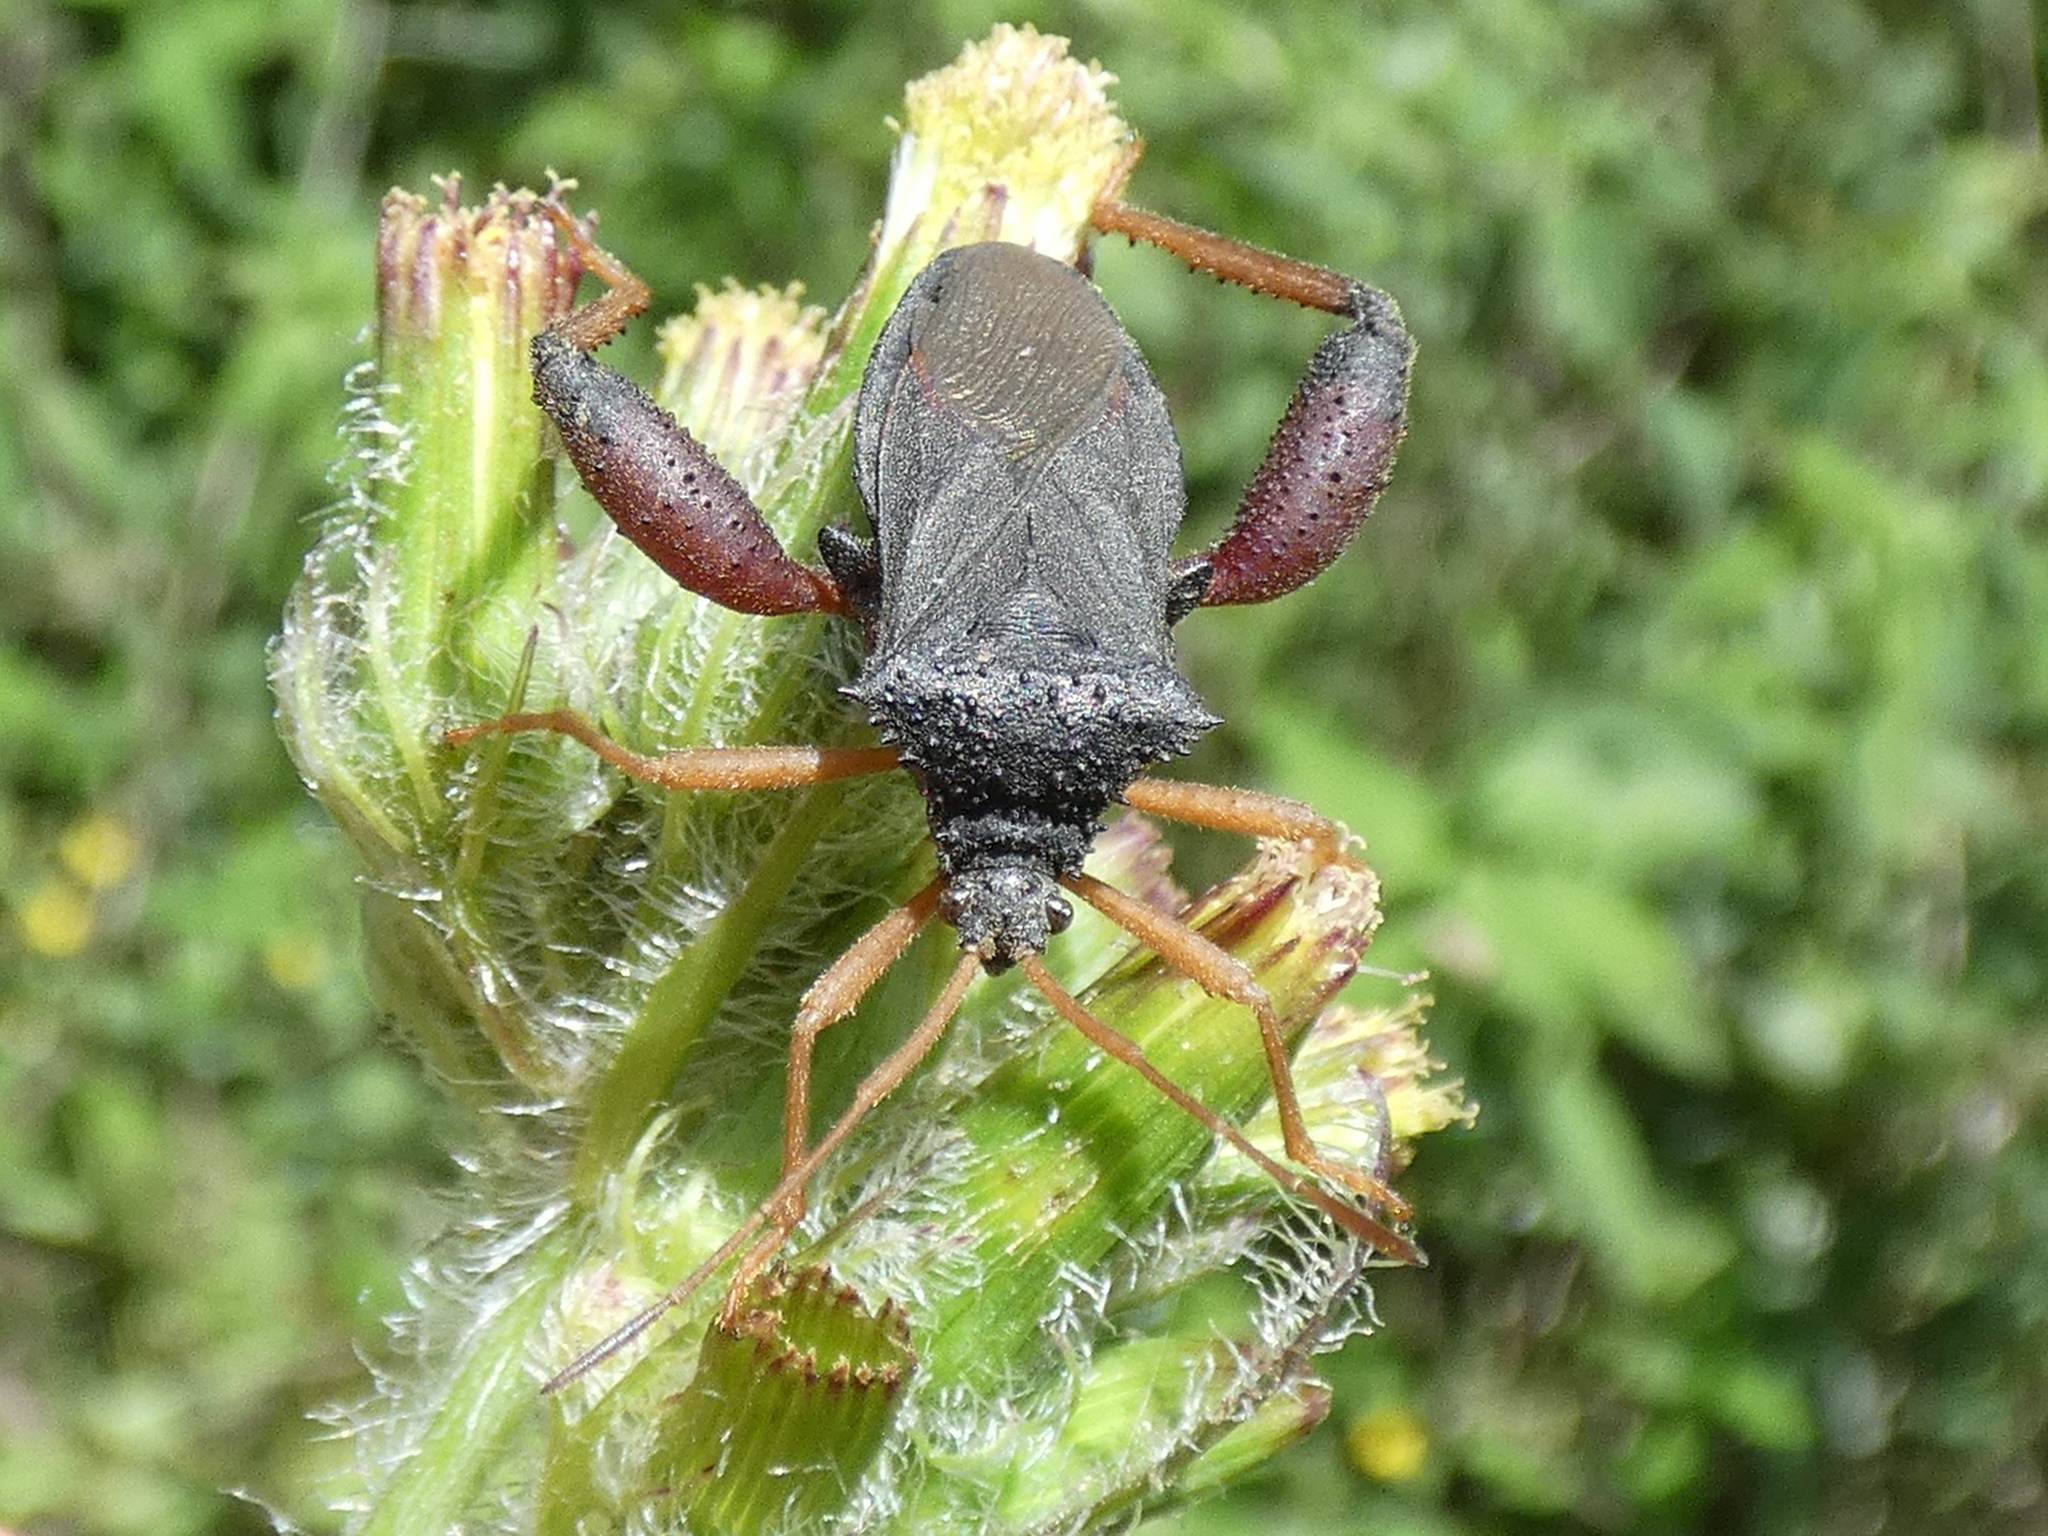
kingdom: Animalia
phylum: Arthropoda
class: Insecta
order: Hemiptera
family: Coreidae
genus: Camptischium
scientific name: Camptischium clavipes
